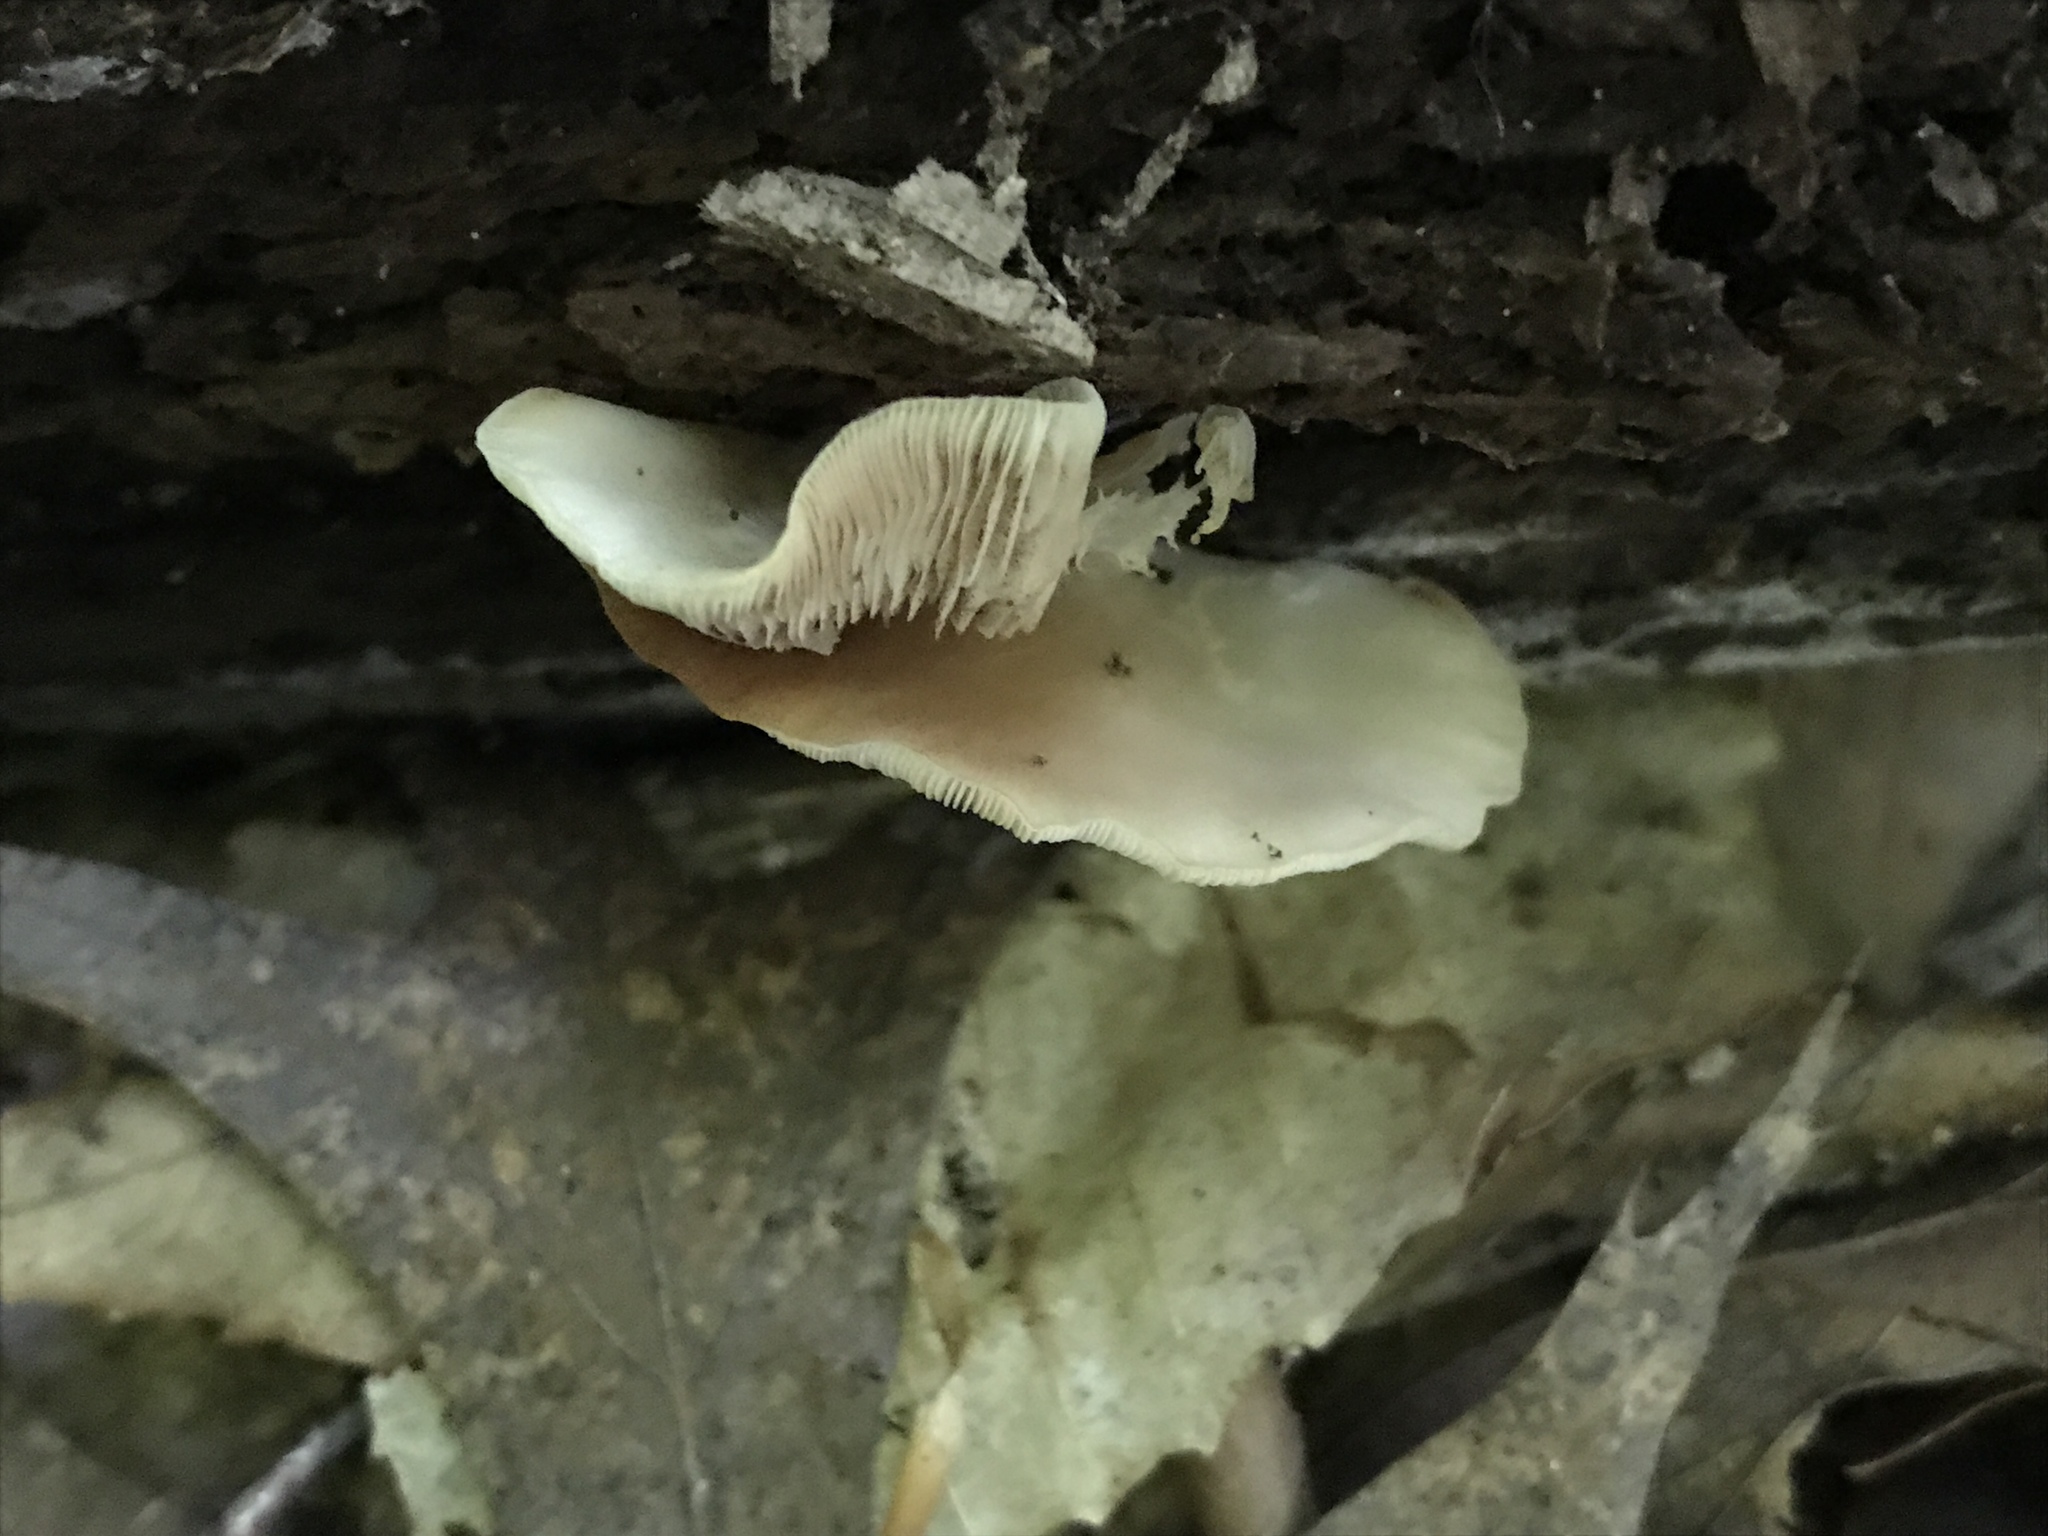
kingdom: Fungi
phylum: Basidiomycota
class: Agaricomycetes
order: Agaricales
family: Crepidotaceae
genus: Crepidotus
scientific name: Crepidotus applanatus
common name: Flat crep
